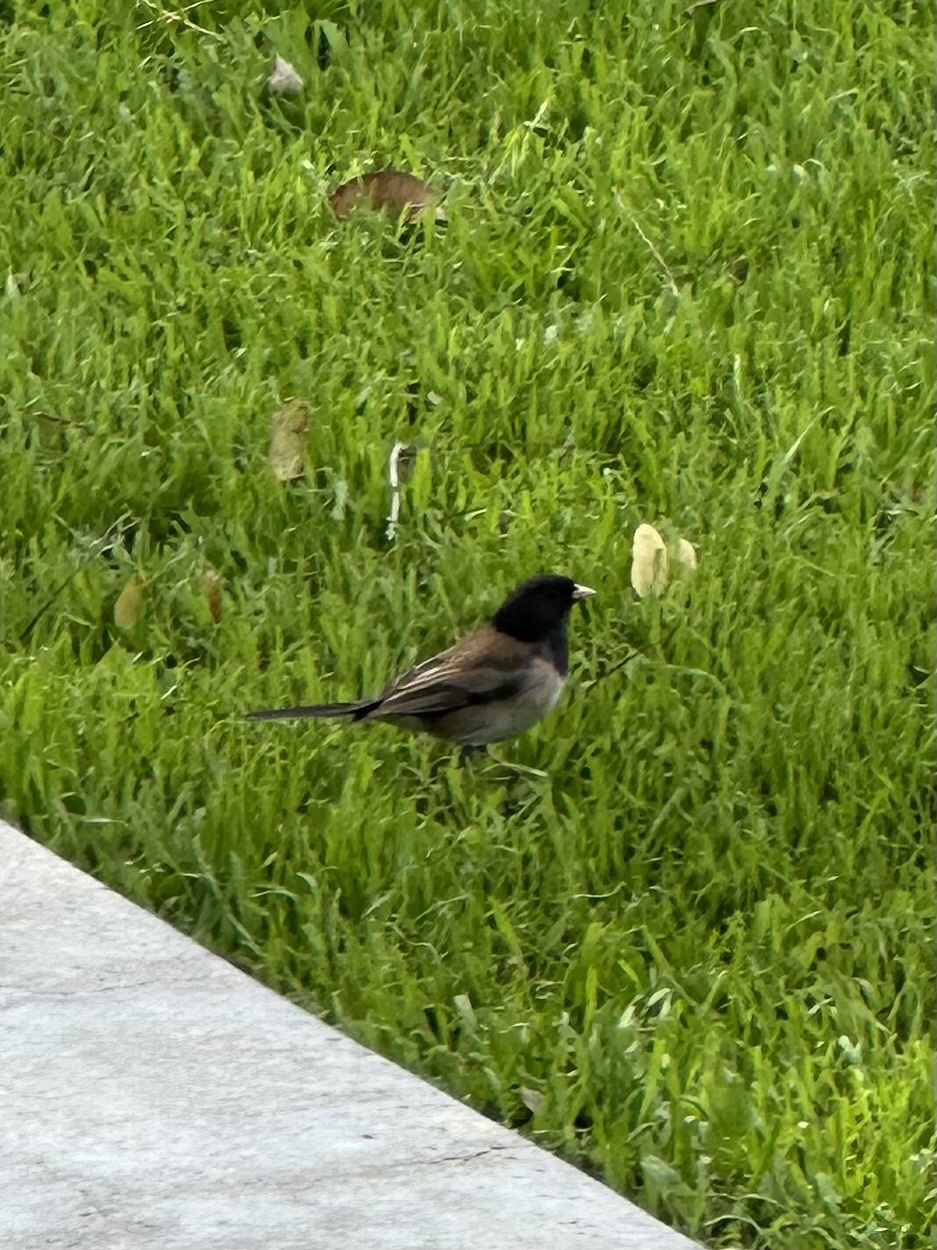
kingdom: Animalia
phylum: Chordata
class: Aves
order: Passeriformes
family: Passerellidae
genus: Junco
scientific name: Junco hyemalis
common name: Dark-eyed junco
